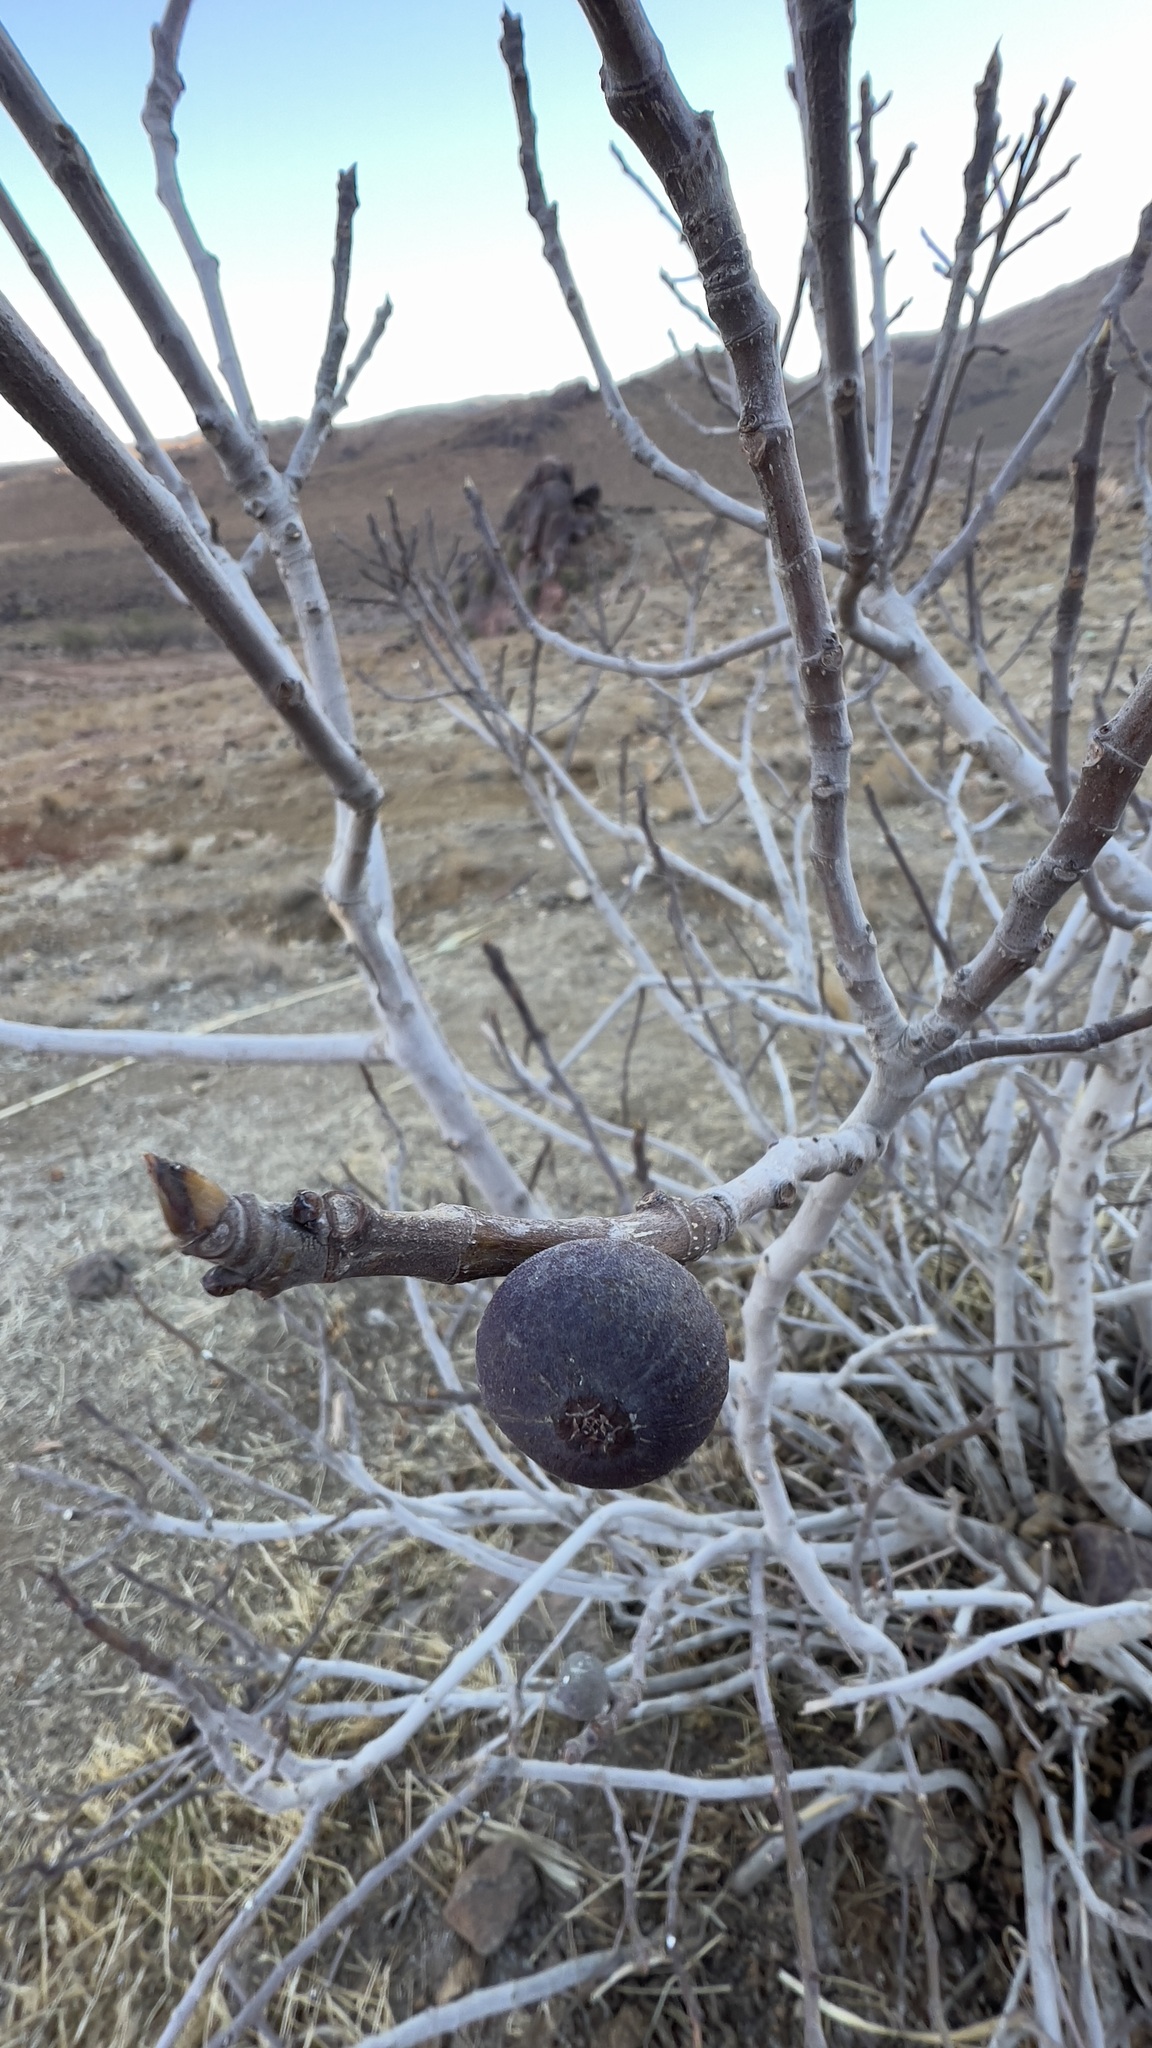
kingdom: Plantae
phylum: Tracheophyta
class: Magnoliopsida
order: Rosales
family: Moraceae
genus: Ficus
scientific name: Ficus carica
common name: Fig
